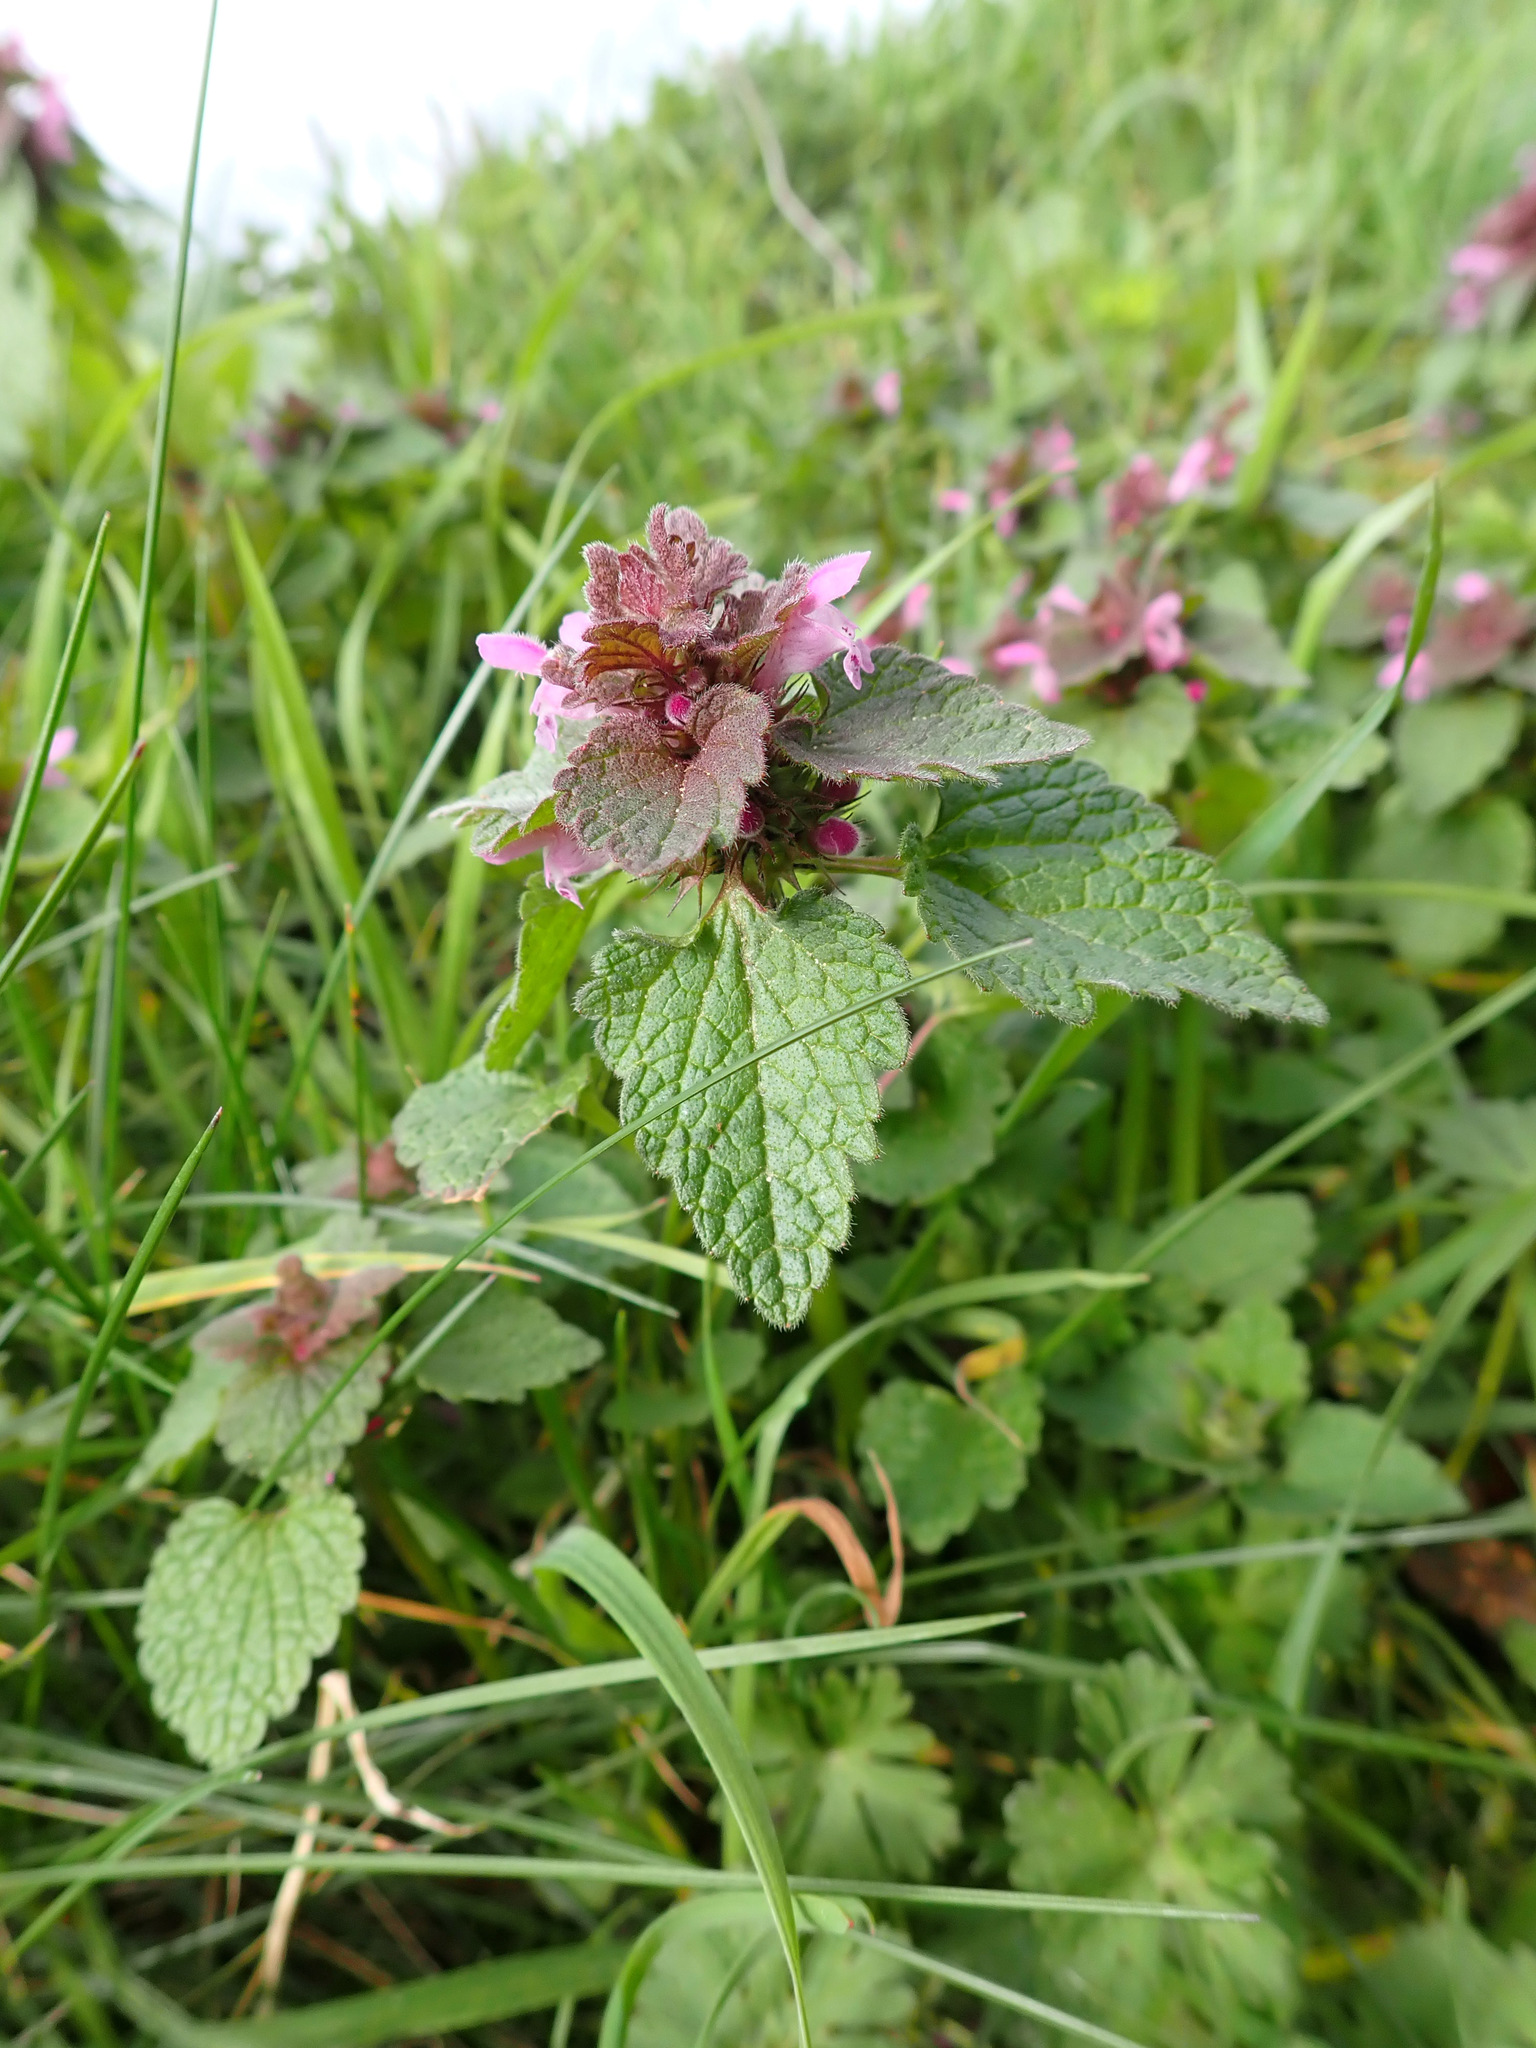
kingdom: Plantae
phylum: Tracheophyta
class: Magnoliopsida
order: Lamiales
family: Lamiaceae
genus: Lamium
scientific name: Lamium purpureum
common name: Red dead-nettle
